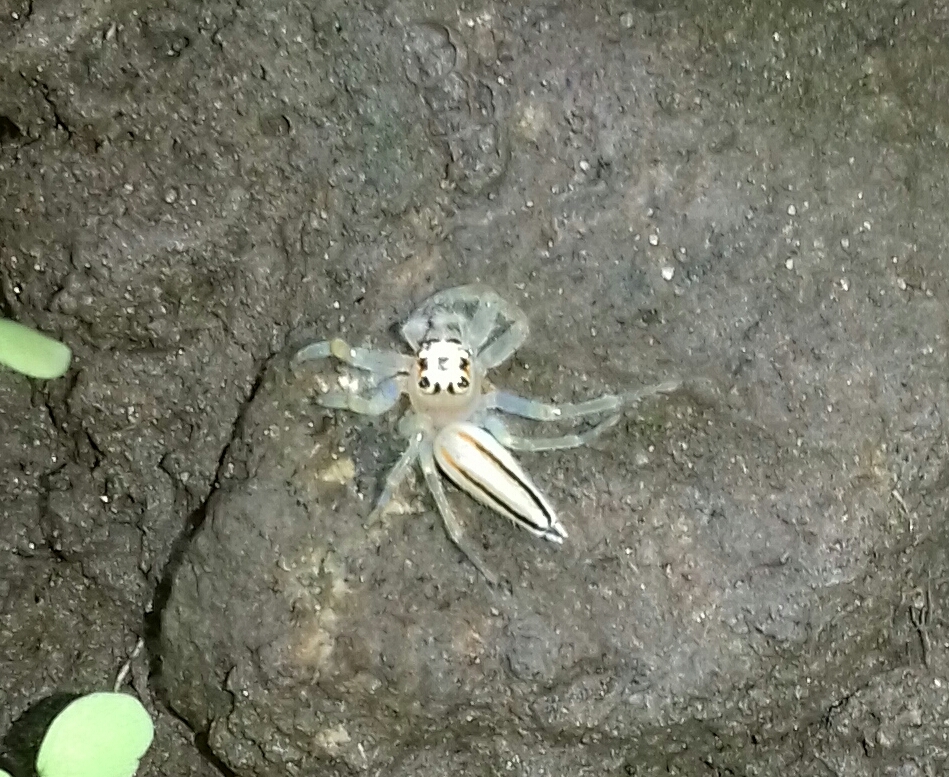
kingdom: Animalia
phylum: Arthropoda
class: Arachnida
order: Araneae
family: Salticidae
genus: Telamonia
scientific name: Telamonia dimidiata
